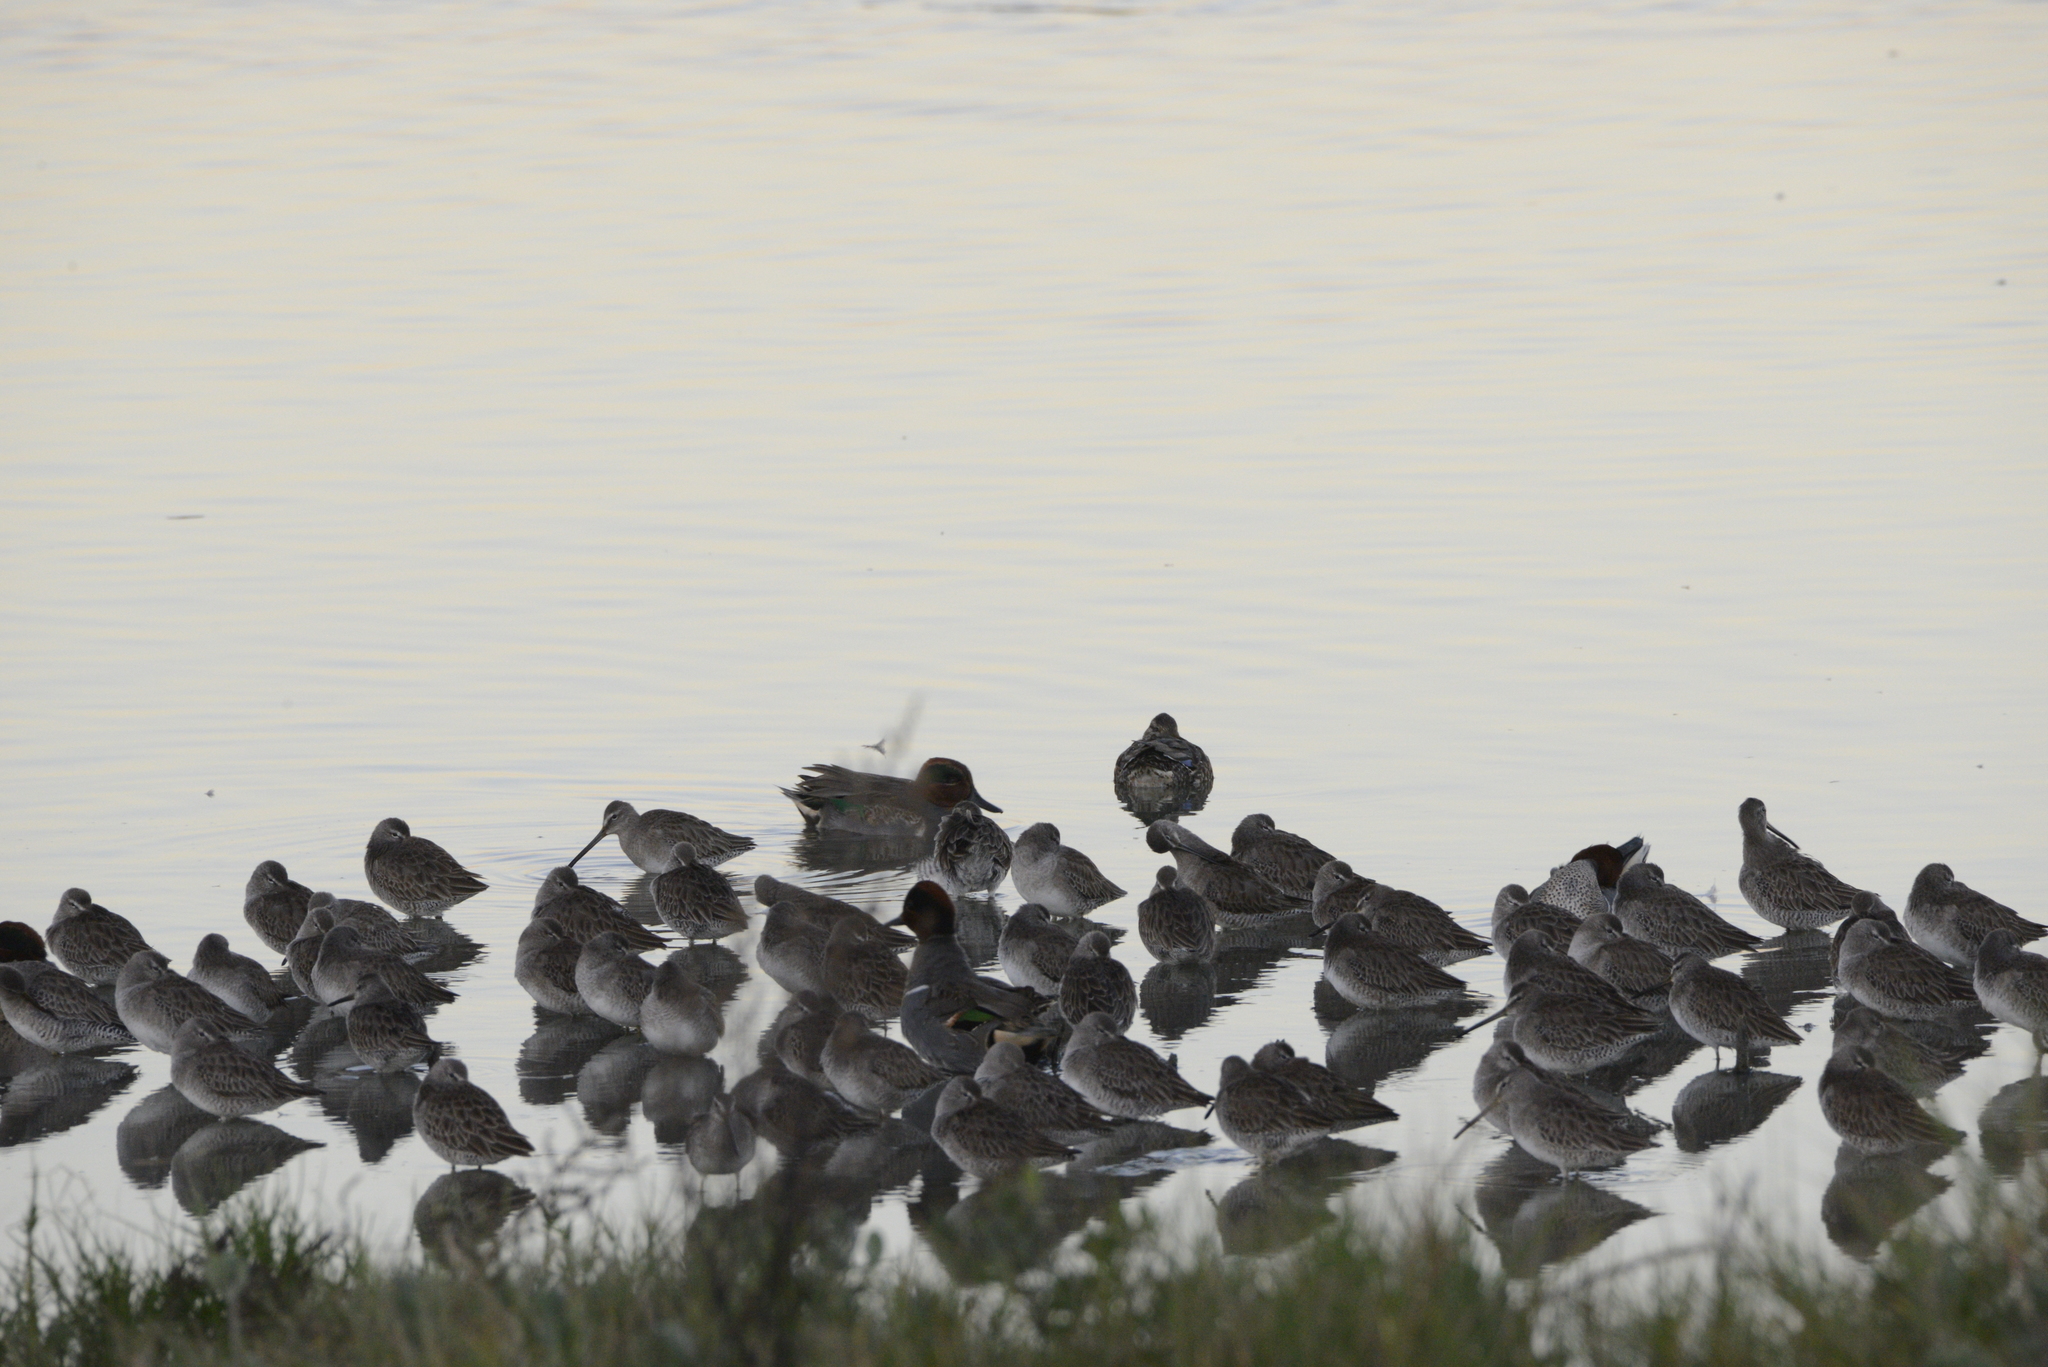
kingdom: Animalia
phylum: Chordata
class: Aves
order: Anseriformes
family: Anatidae
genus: Anas
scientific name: Anas crecca
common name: Eurasian teal
